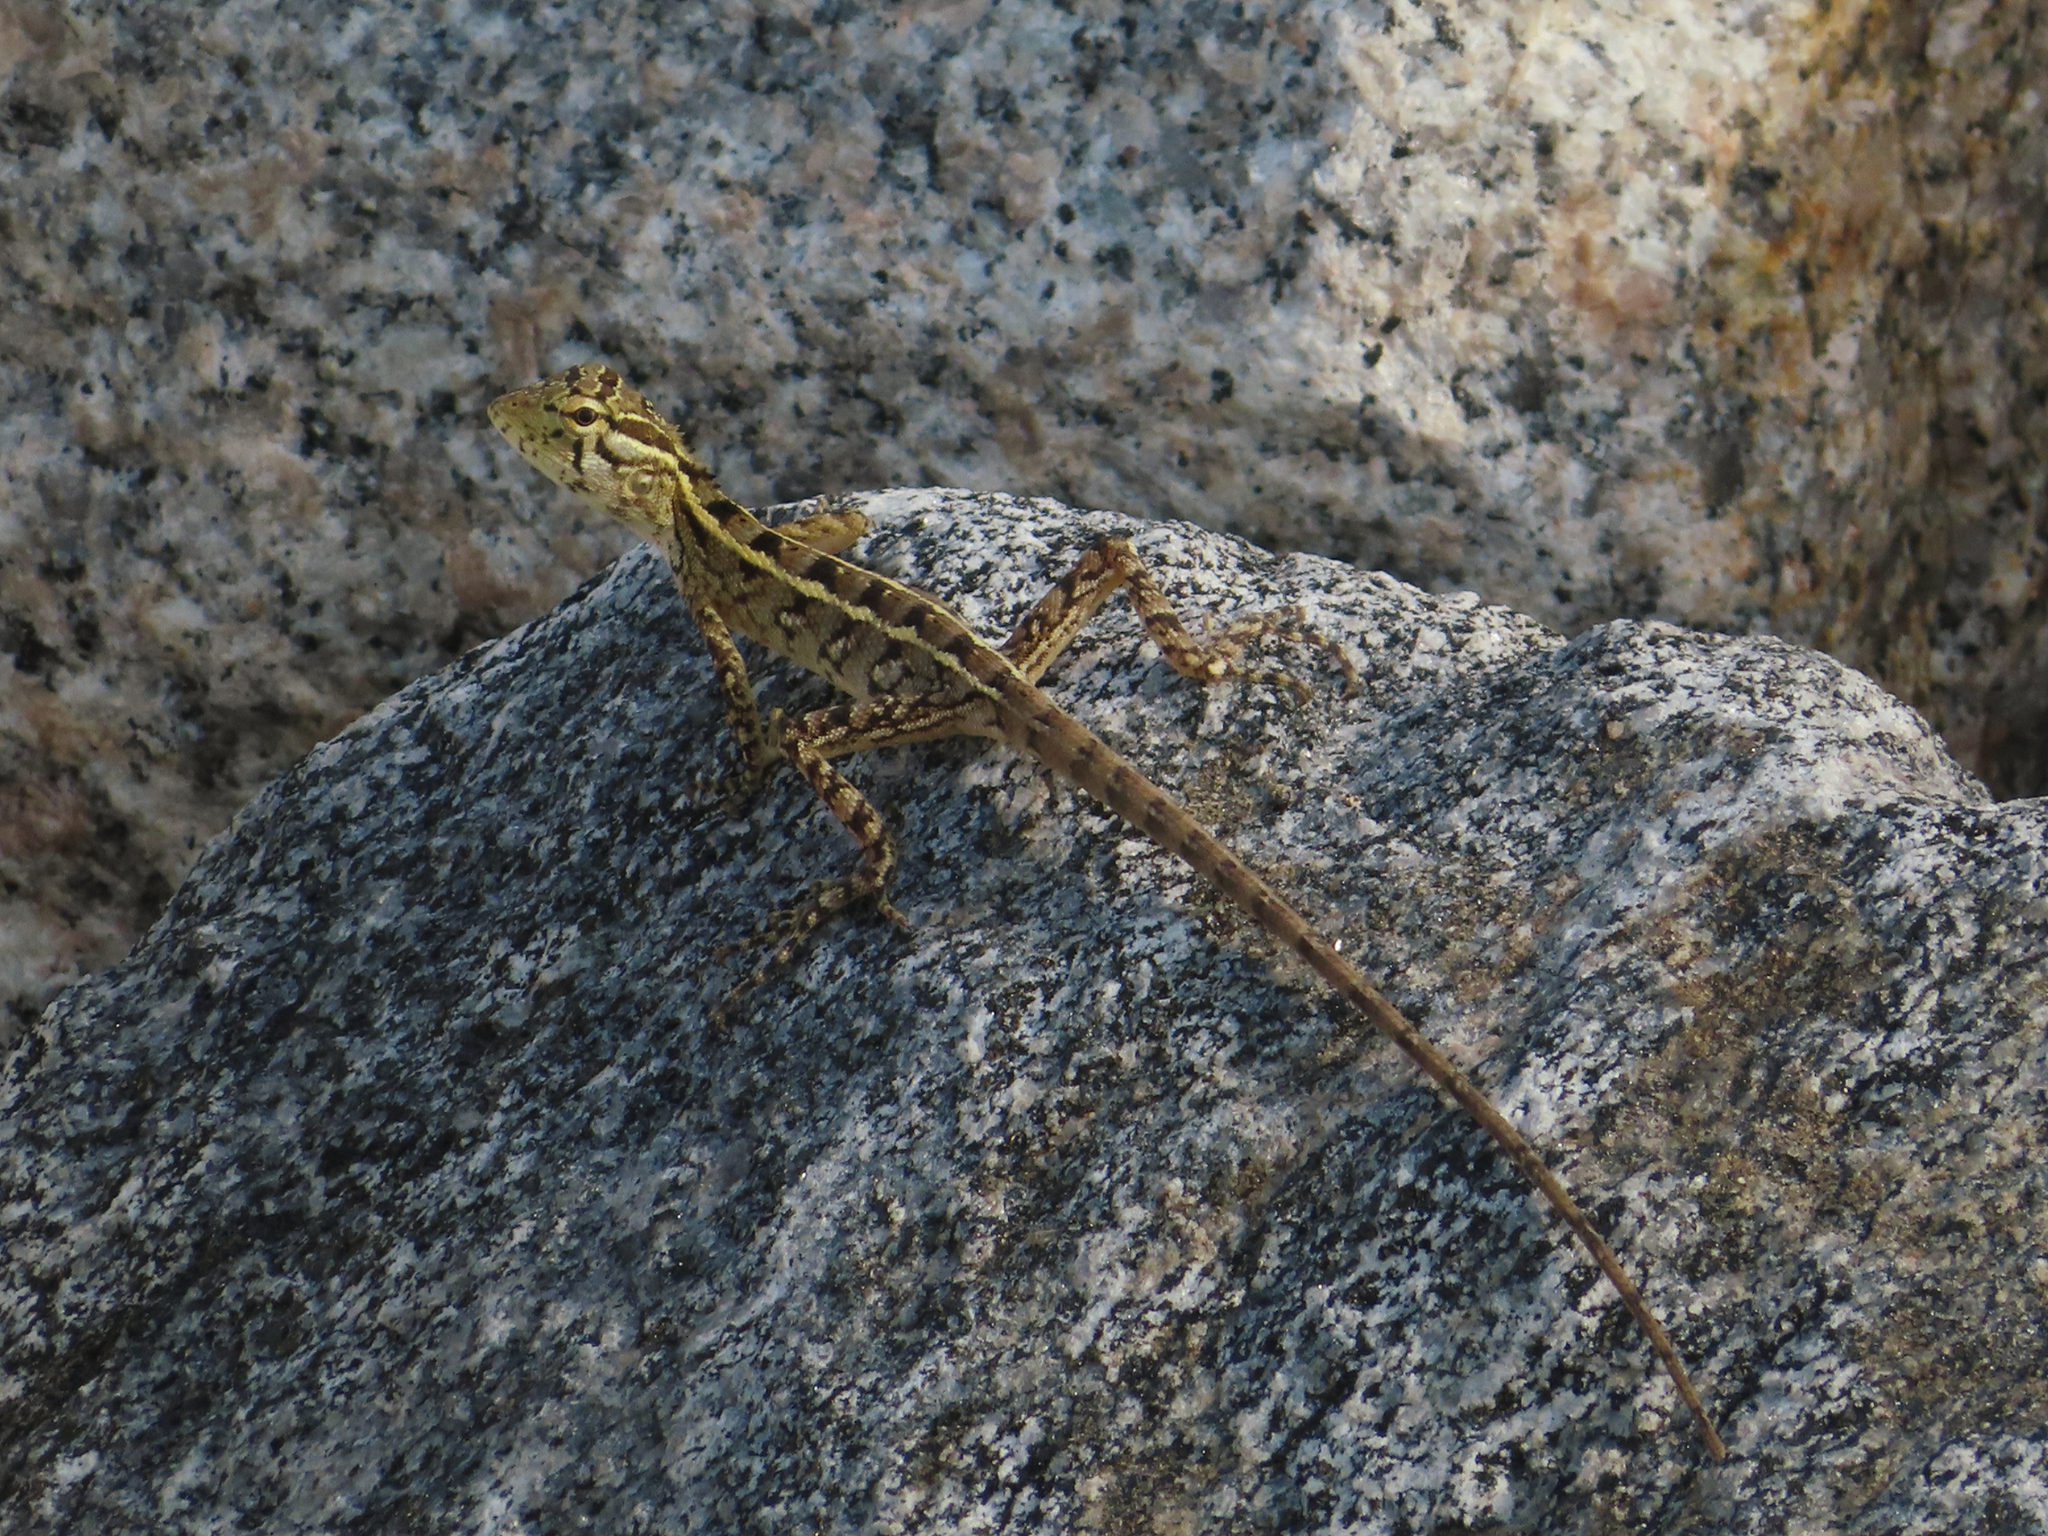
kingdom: Animalia
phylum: Chordata
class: Squamata
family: Agamidae
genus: Calotes
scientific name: Calotes versicolor
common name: Oriental garden lizard
